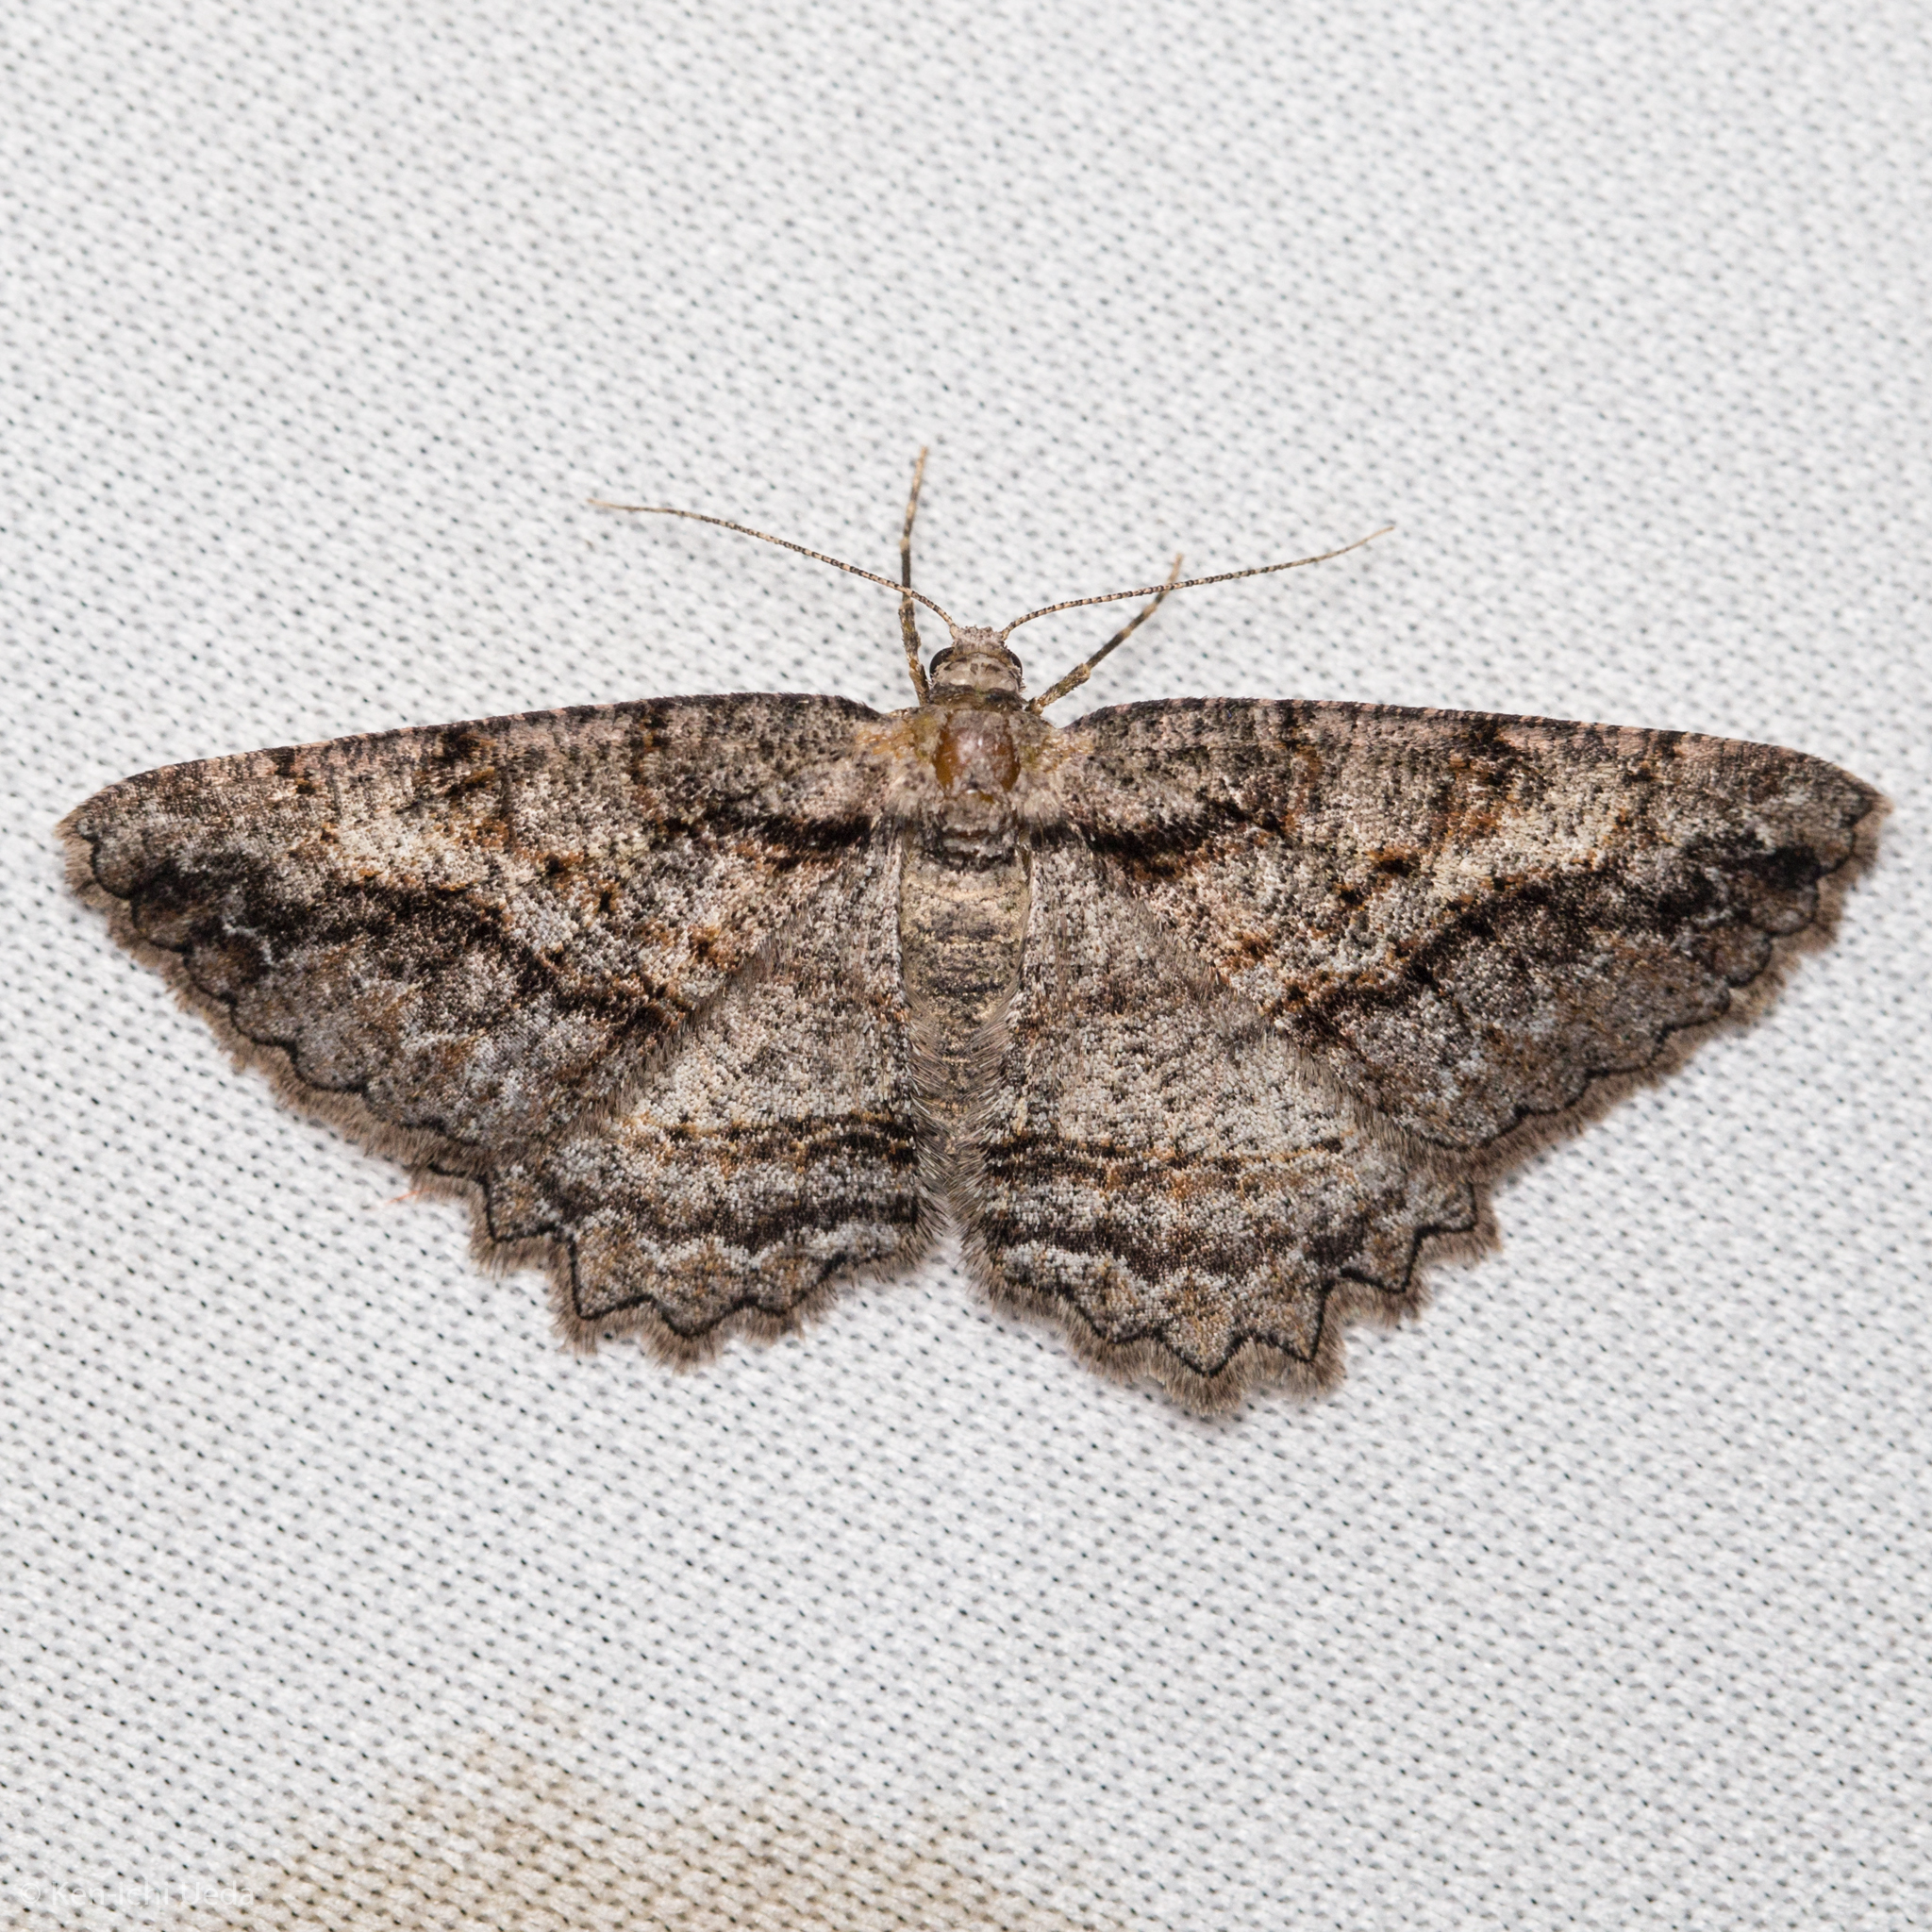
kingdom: Animalia
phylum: Arthropoda
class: Insecta
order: Lepidoptera
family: Geometridae
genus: Neoalcis
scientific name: Neoalcis californiaria
